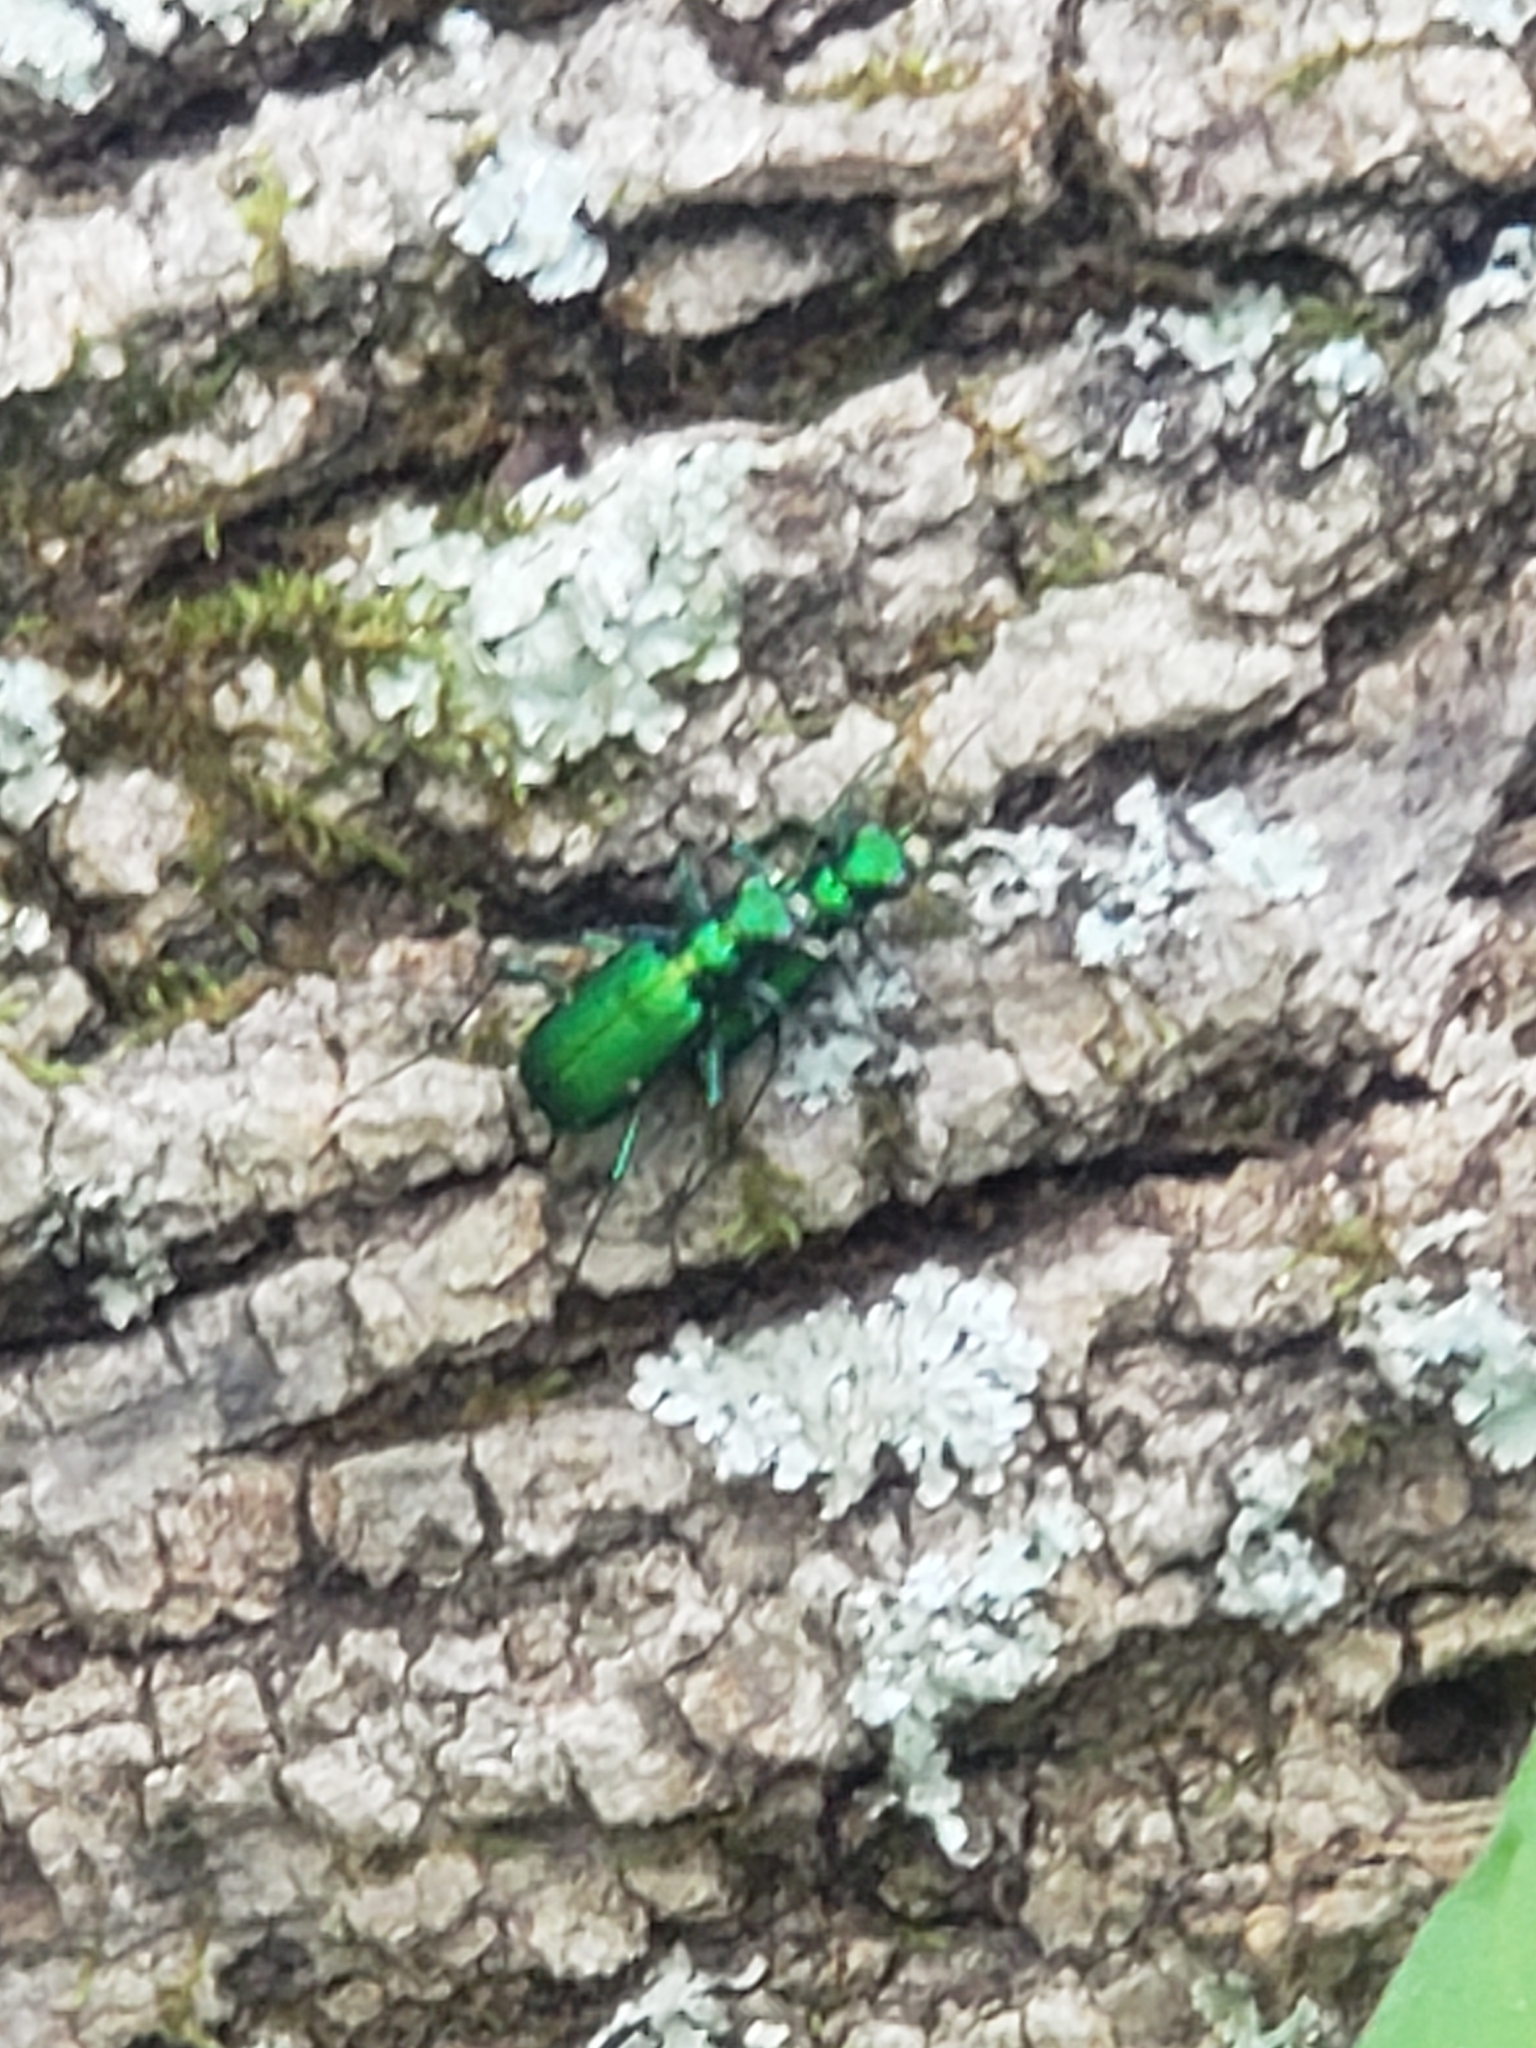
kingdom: Animalia
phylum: Arthropoda
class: Insecta
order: Coleoptera
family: Carabidae
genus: Cicindela
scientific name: Cicindela sexguttata
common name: Six-spotted tiger beetle
